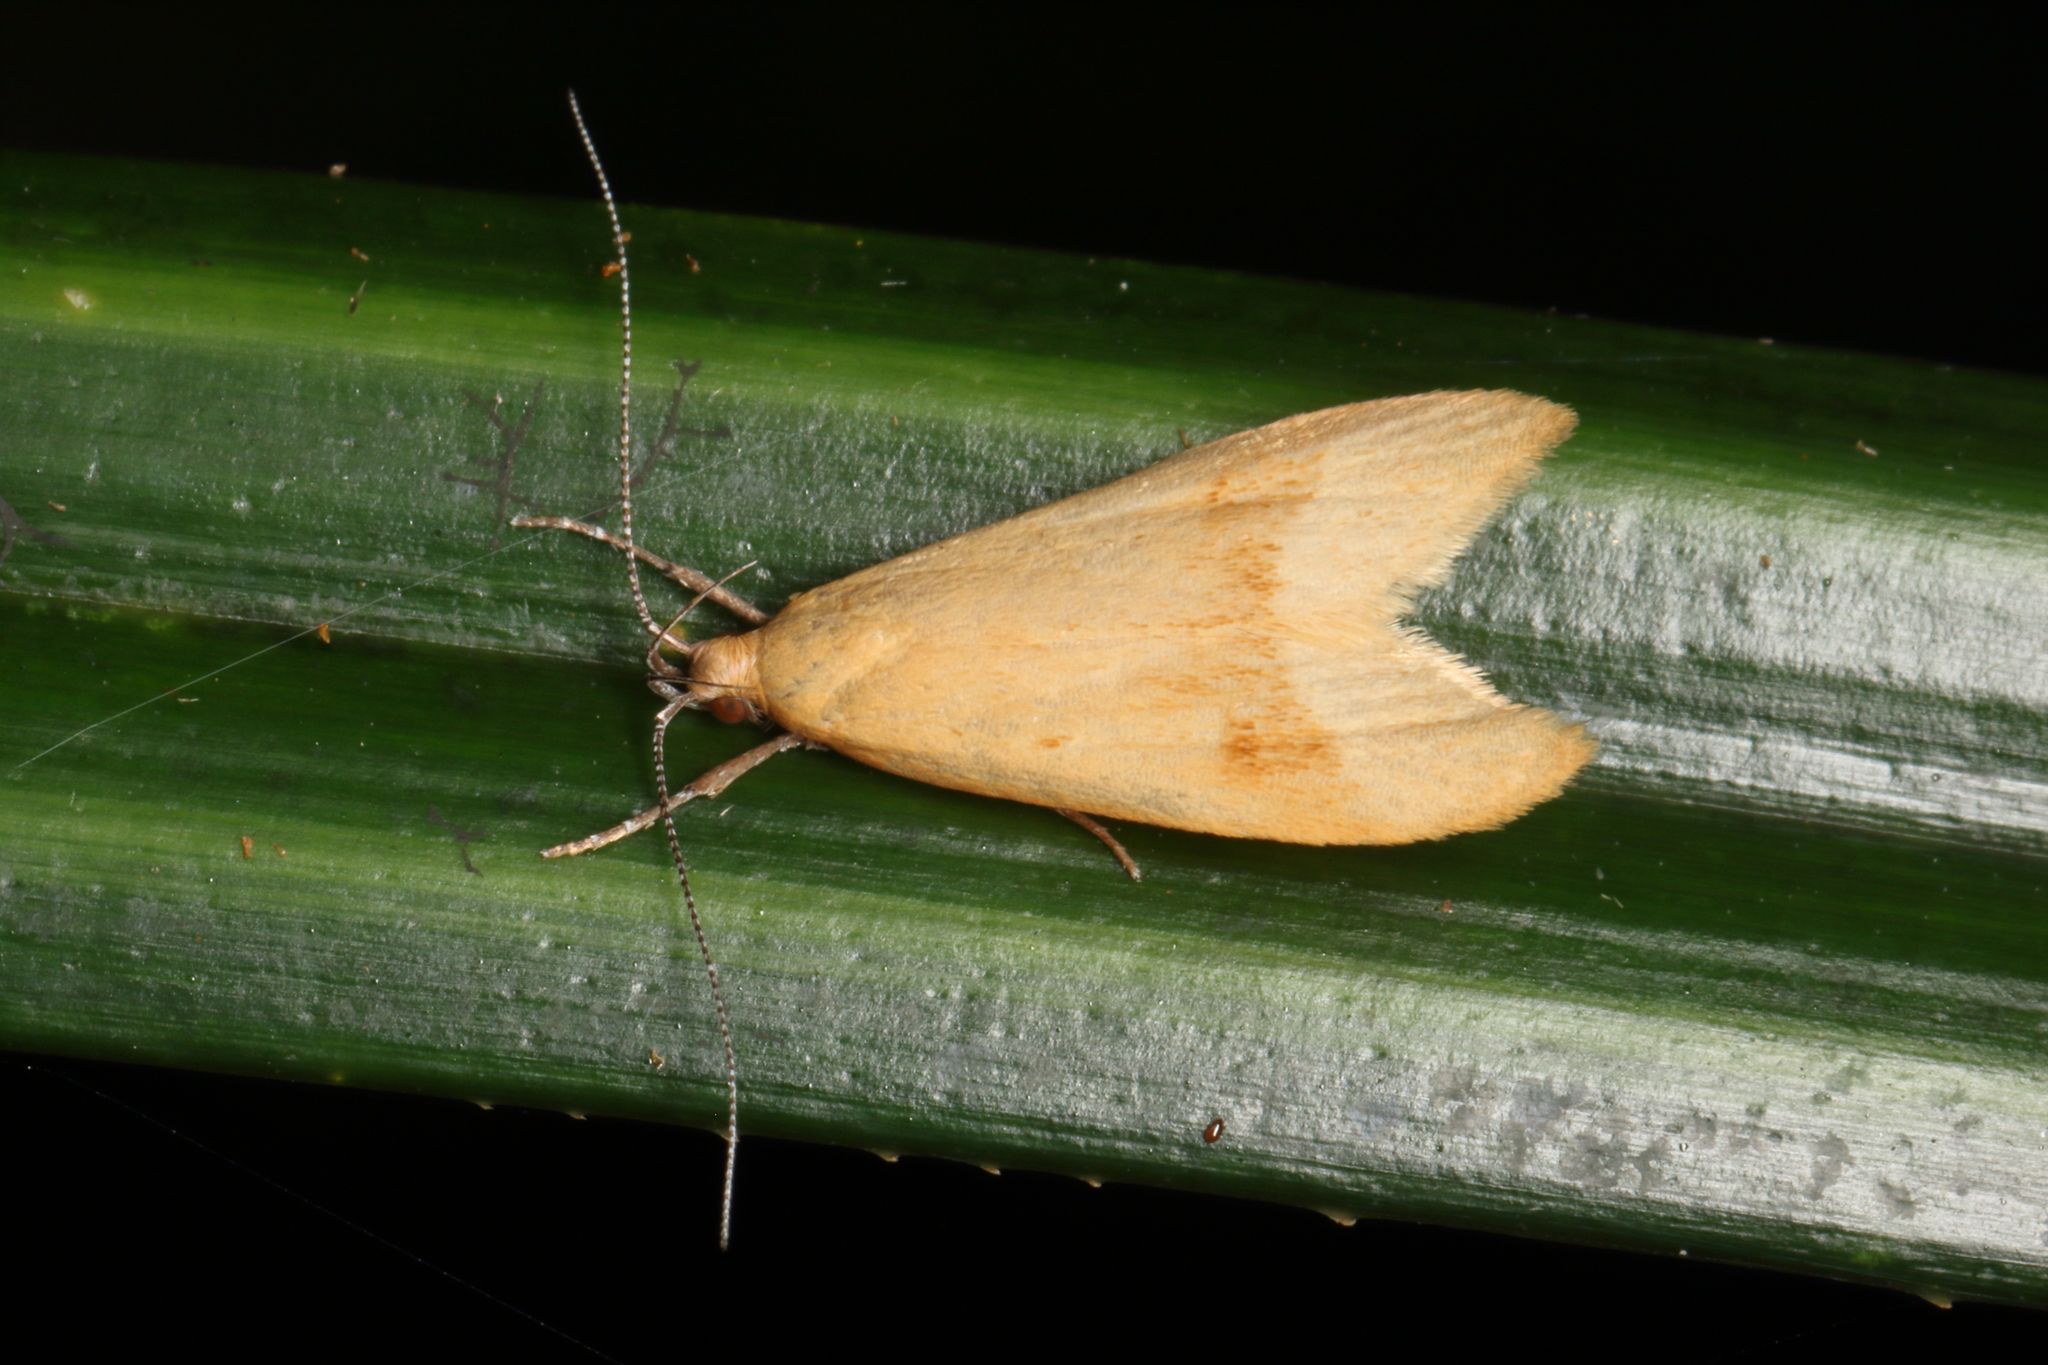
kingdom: Animalia
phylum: Arthropoda
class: Insecta
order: Lepidoptera
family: Oecophoridae
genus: Gymnobathra
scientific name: Gymnobathra hyetodes
